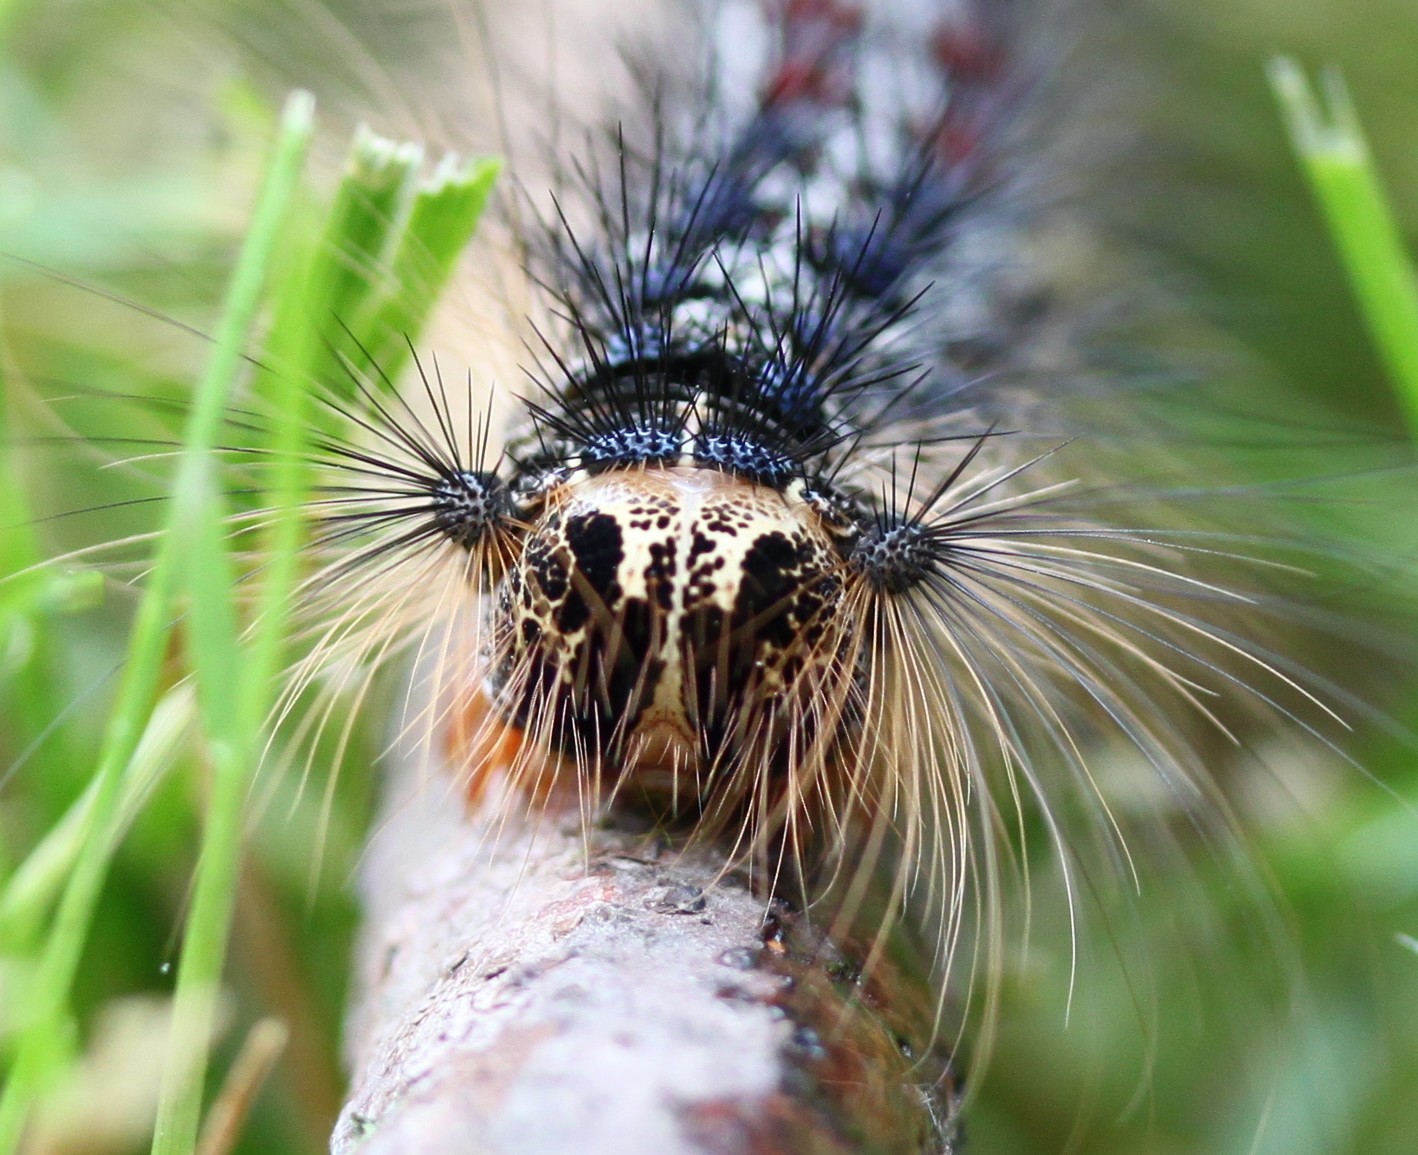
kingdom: Animalia
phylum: Arthropoda
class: Insecta
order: Lepidoptera
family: Erebidae
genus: Lymantria
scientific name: Lymantria dispar
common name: Gypsy moth
